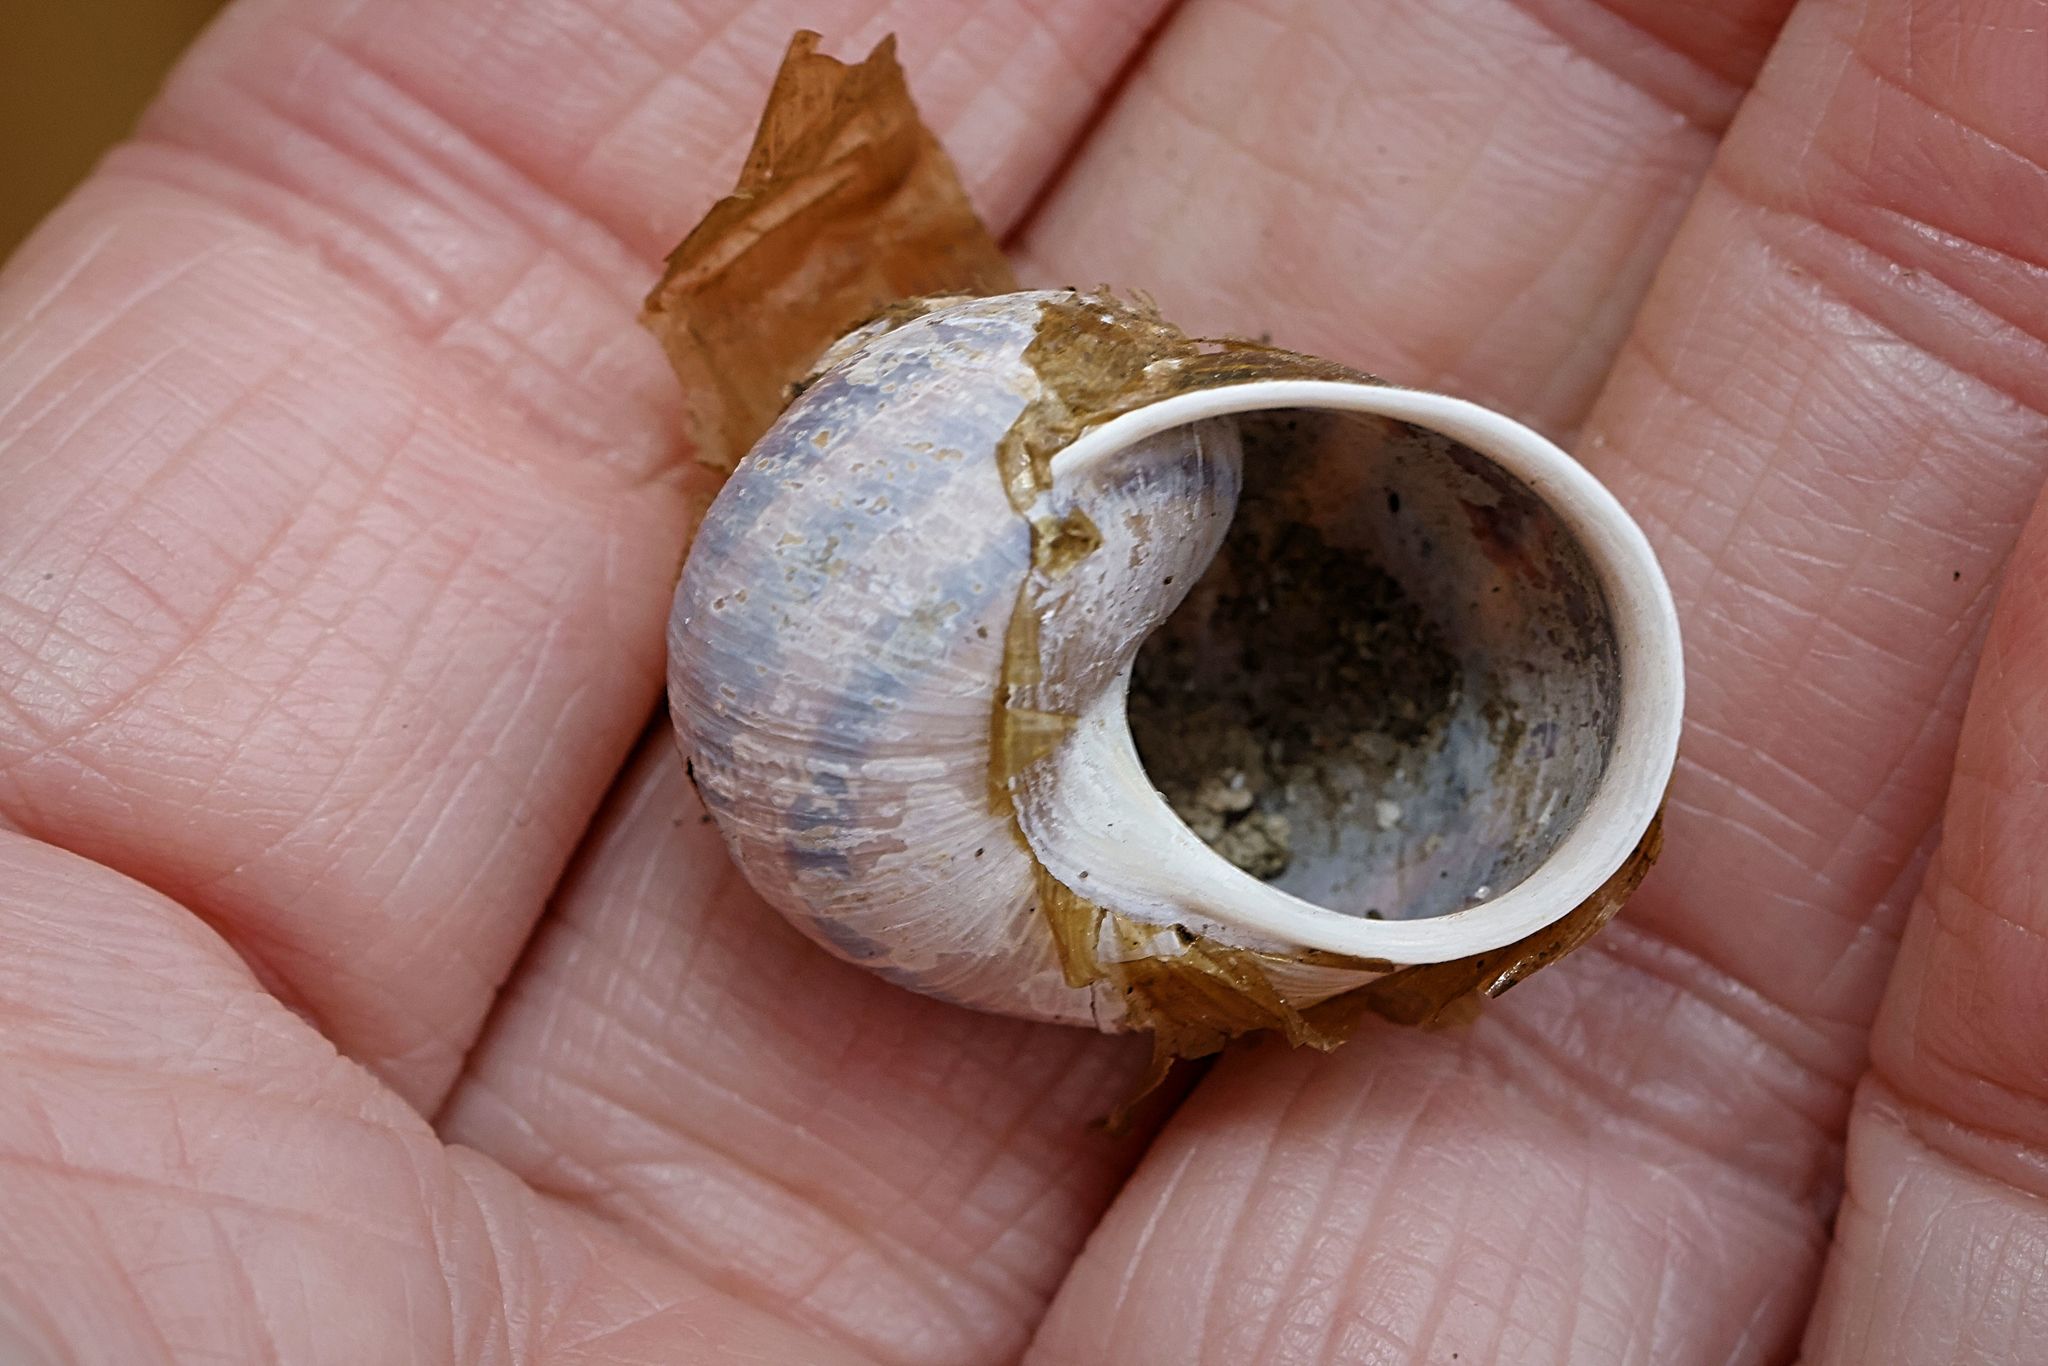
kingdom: Animalia
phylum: Mollusca
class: Gastropoda
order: Stylommatophora
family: Helicidae
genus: Cornu
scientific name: Cornu aspersum
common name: Brown garden snail
